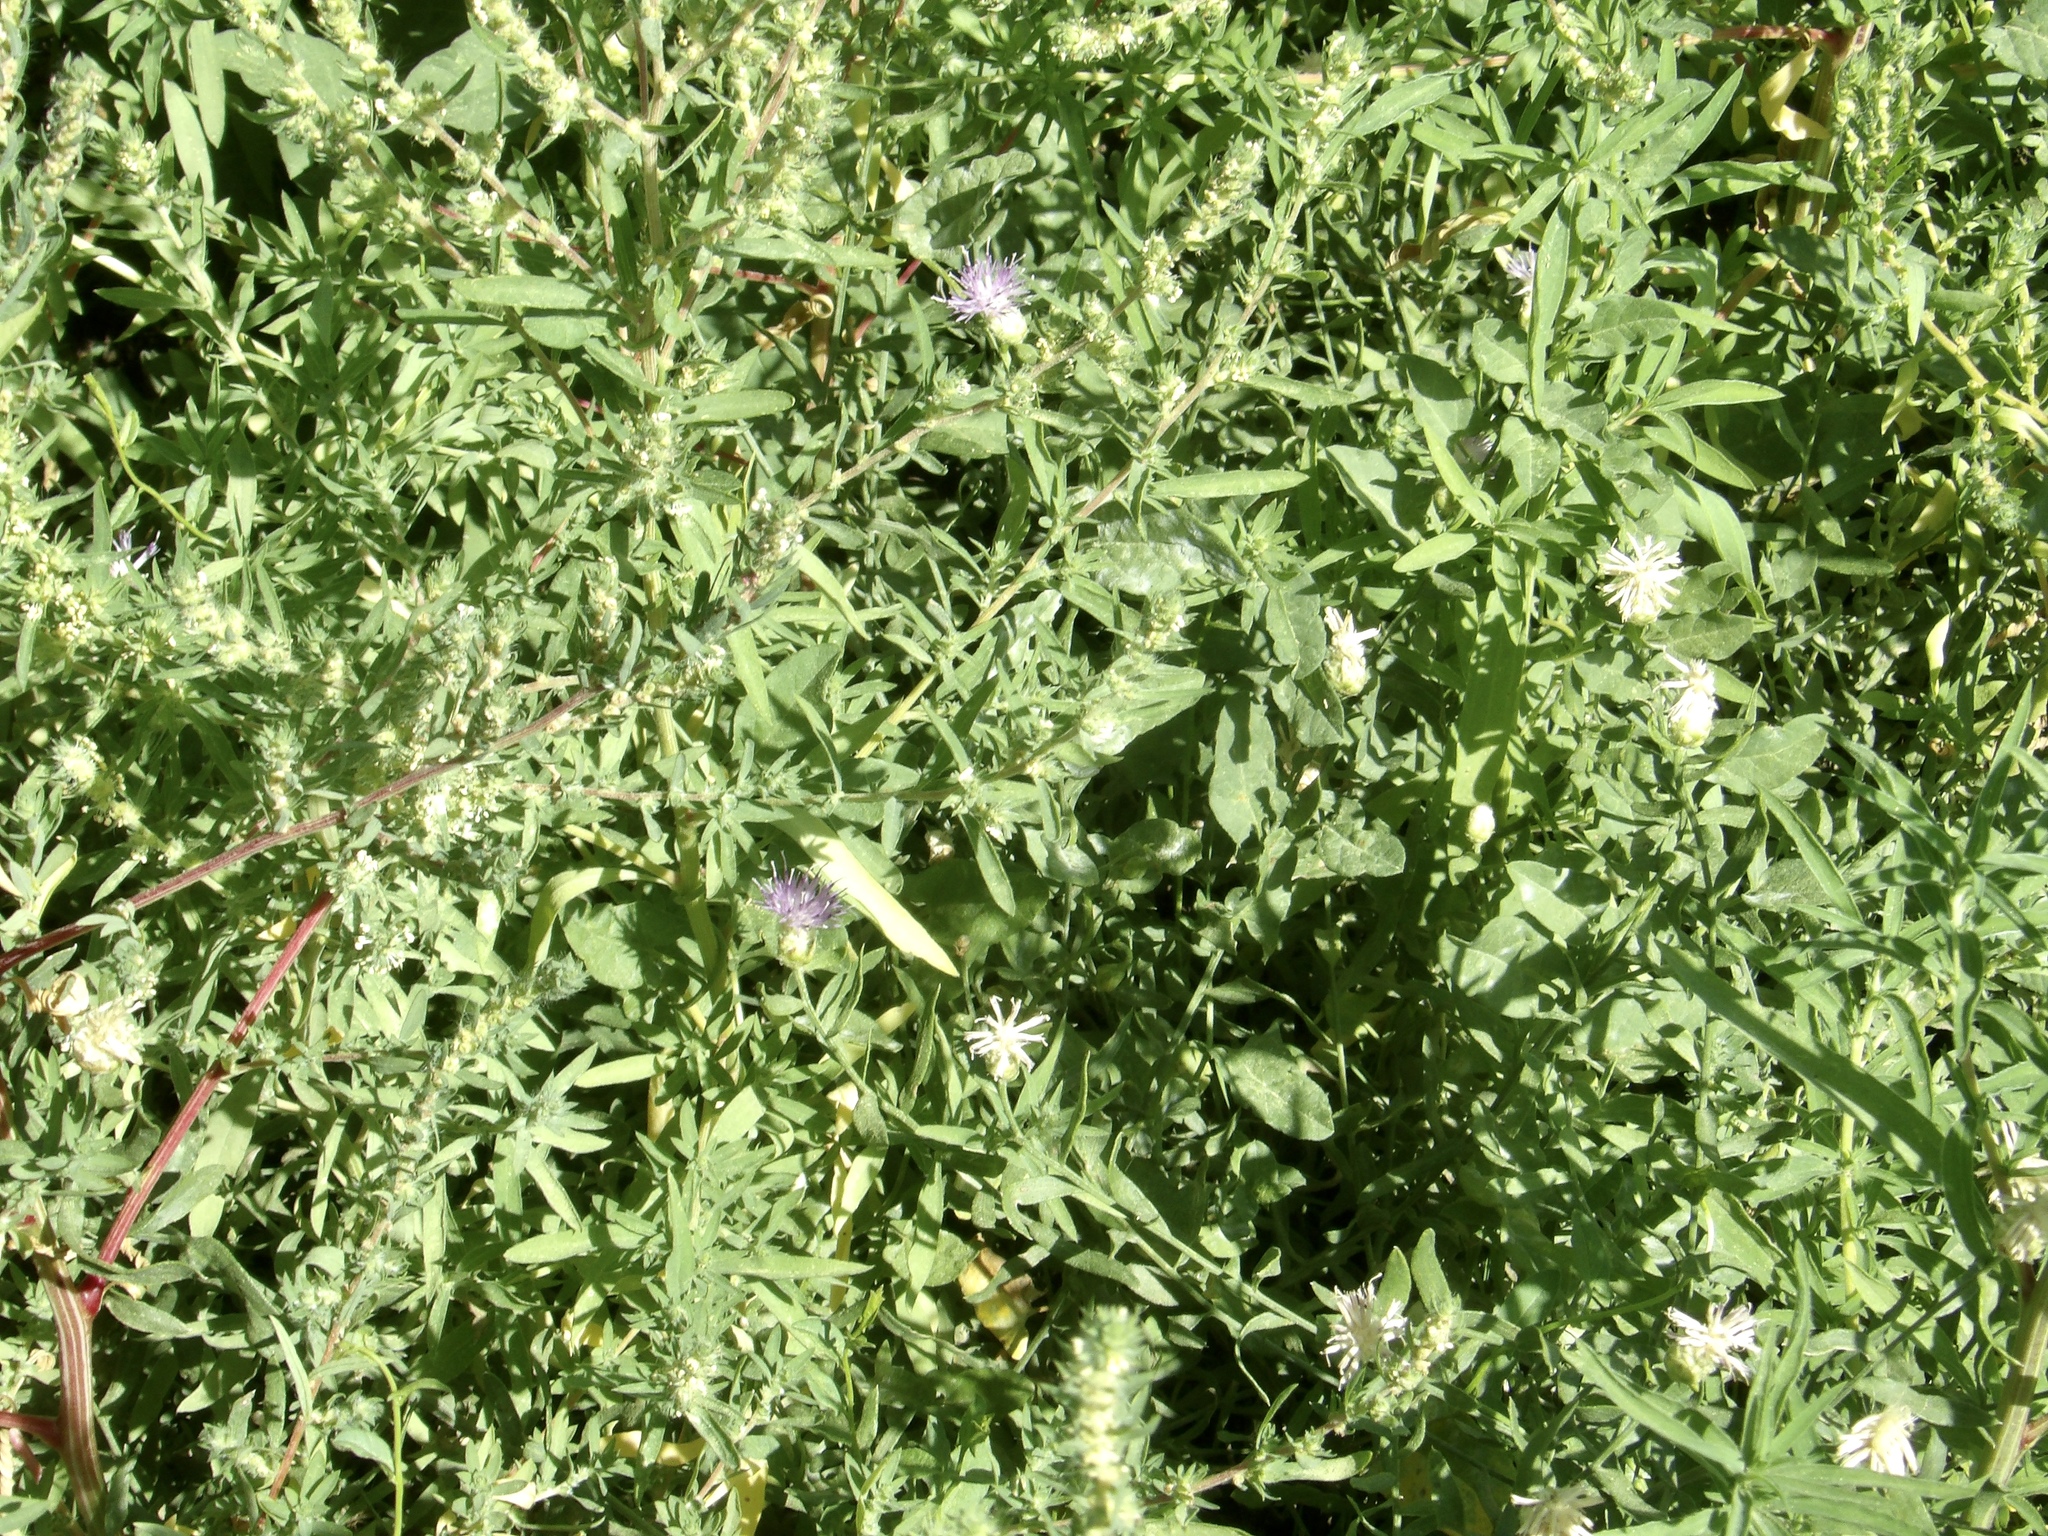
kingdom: Plantae
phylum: Tracheophyta
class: Magnoliopsida
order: Asterales
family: Asteraceae
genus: Leuzea
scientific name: Leuzea repens
